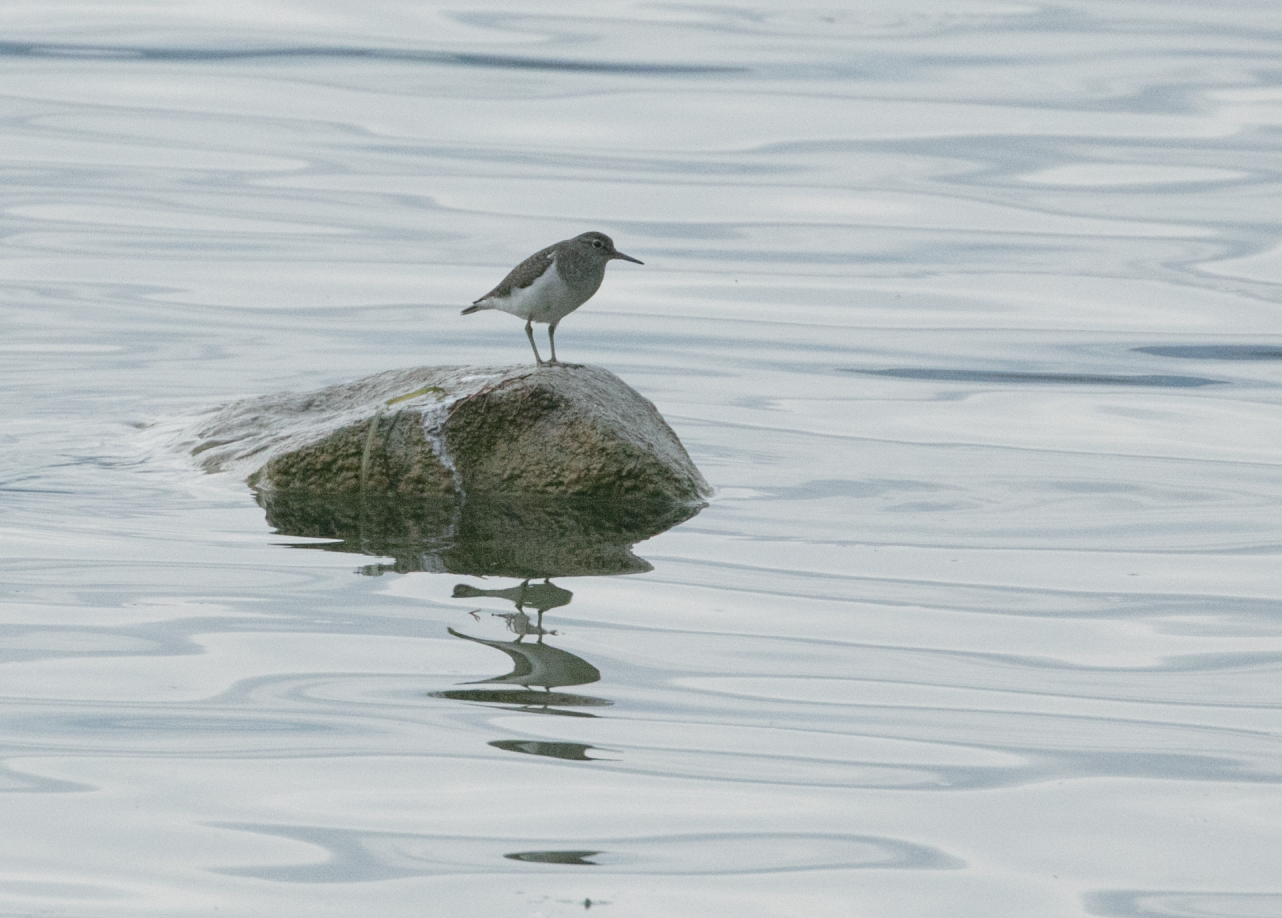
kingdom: Animalia
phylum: Chordata
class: Aves
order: Charadriiformes
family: Scolopacidae
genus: Actitis
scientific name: Actitis hypoleucos
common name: Common sandpiper
